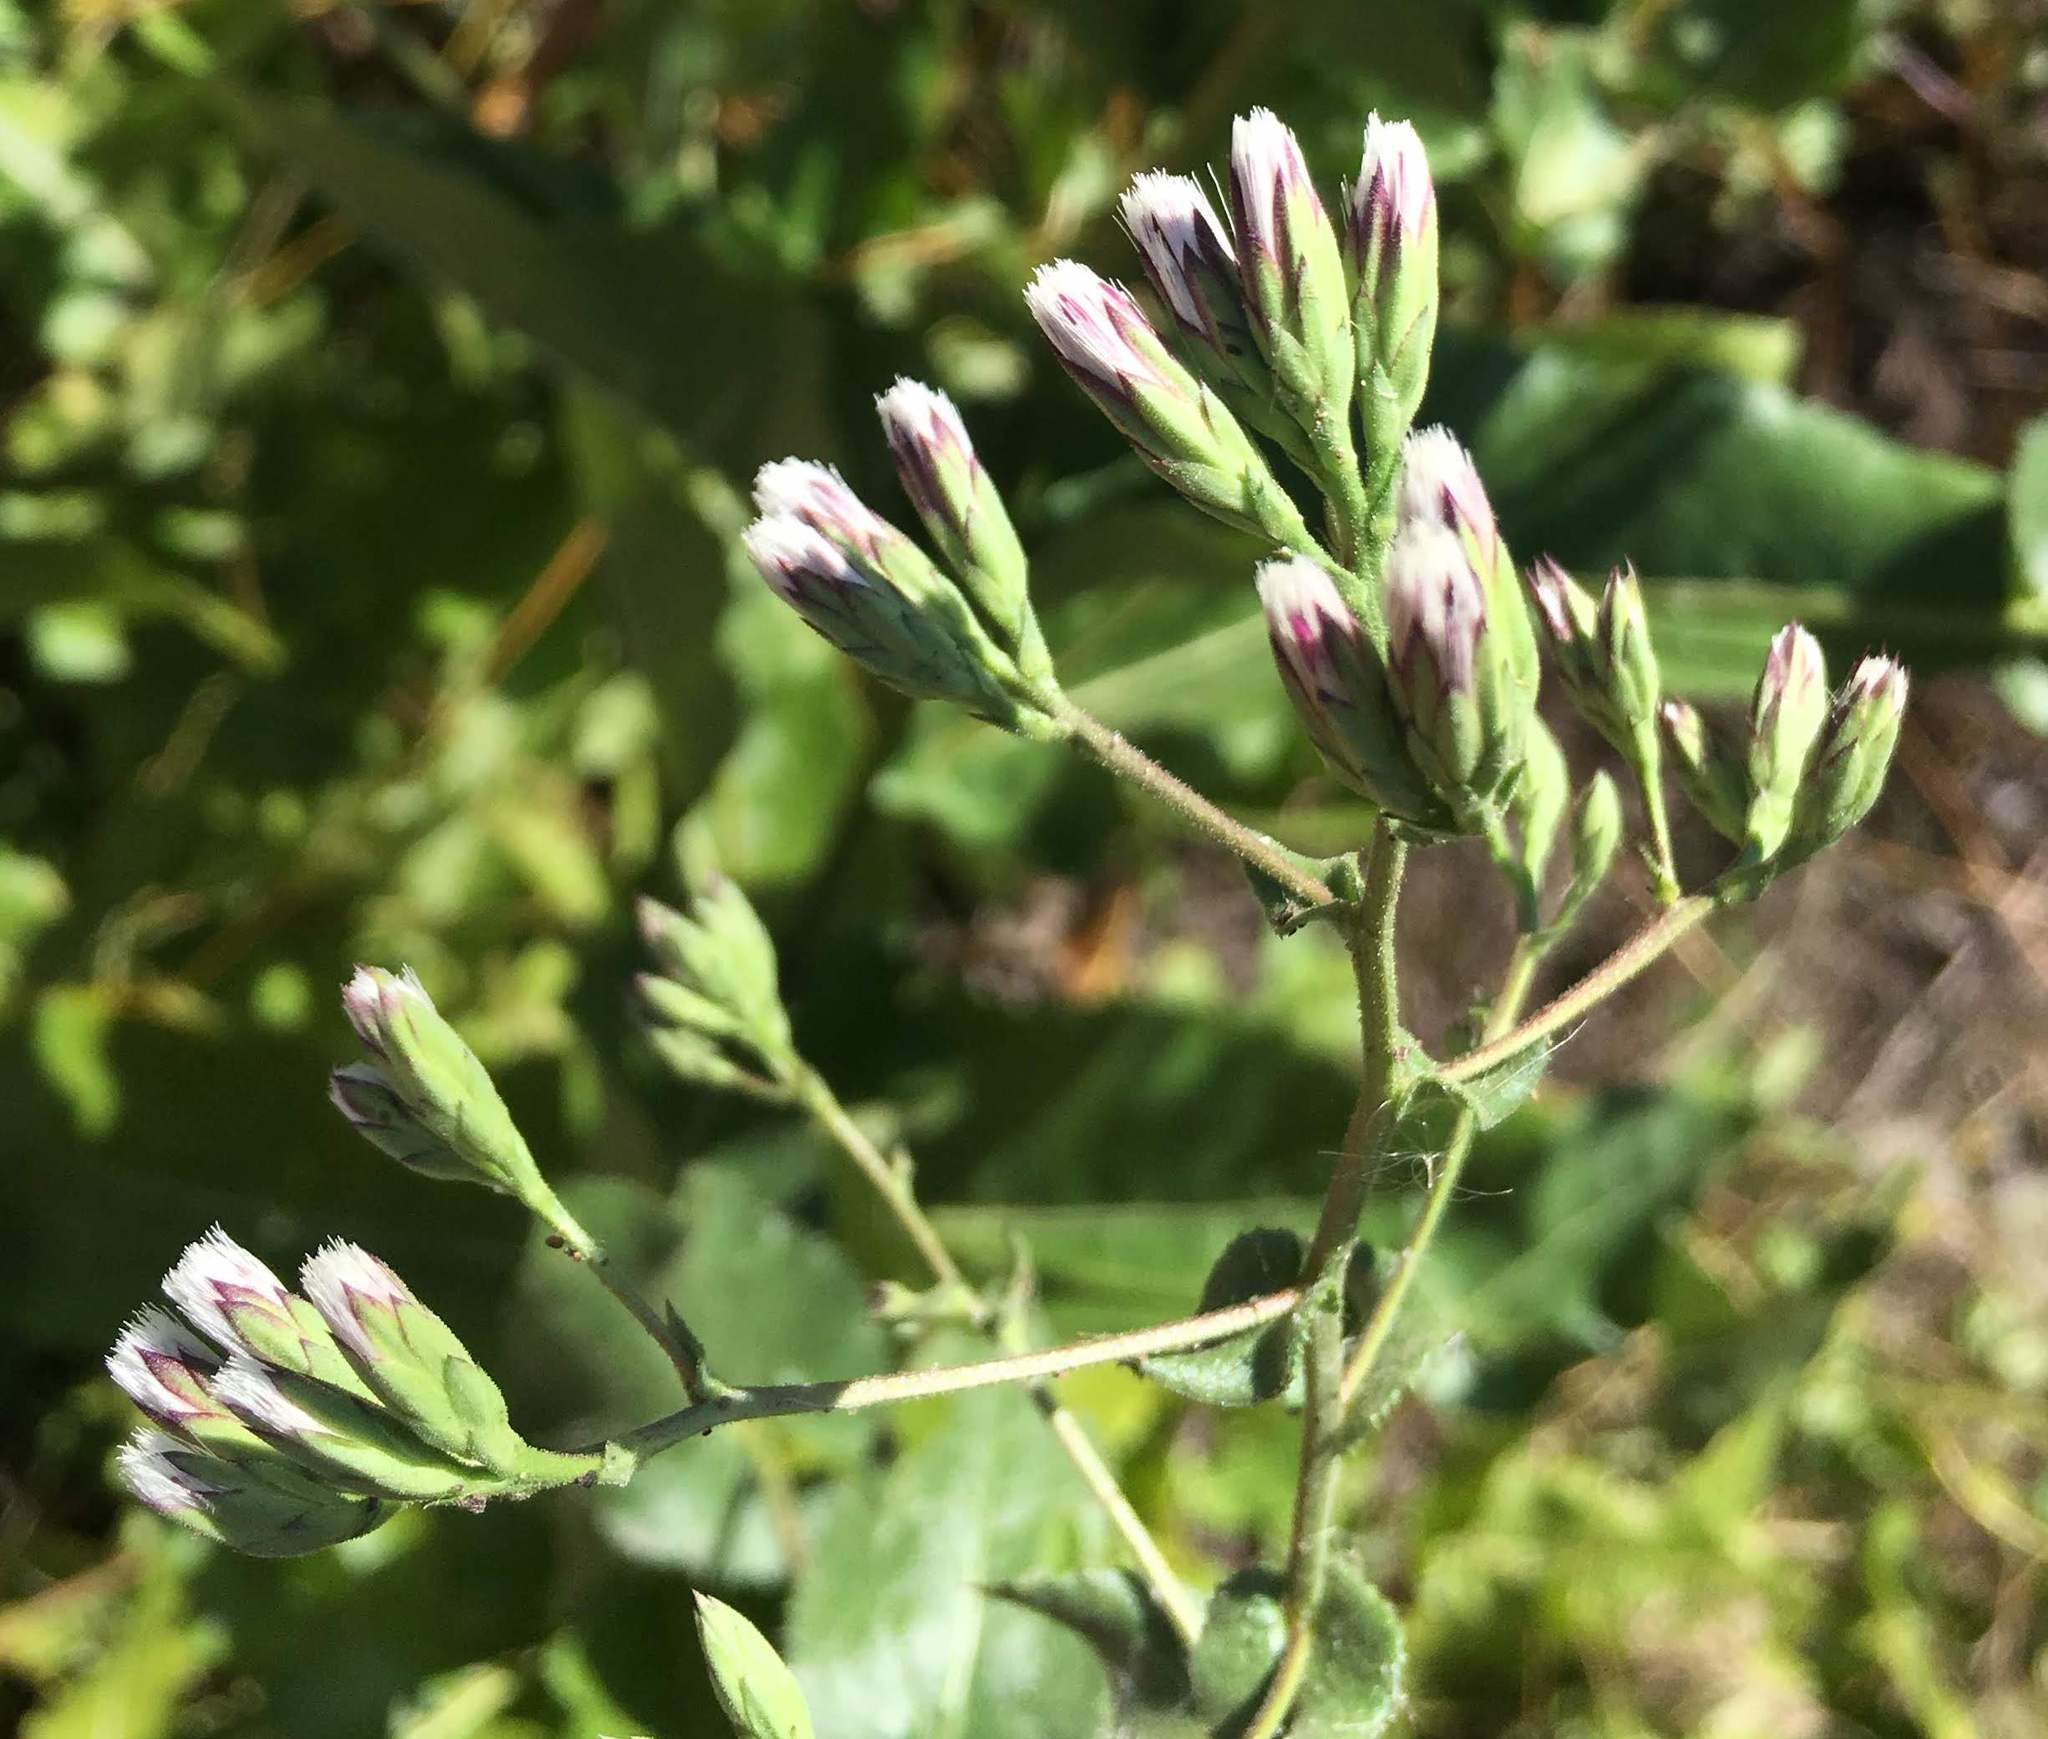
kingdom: Plantae
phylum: Tracheophyta
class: Magnoliopsida
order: Asterales
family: Asteraceae
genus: Acourtia
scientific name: Acourtia microcephala
